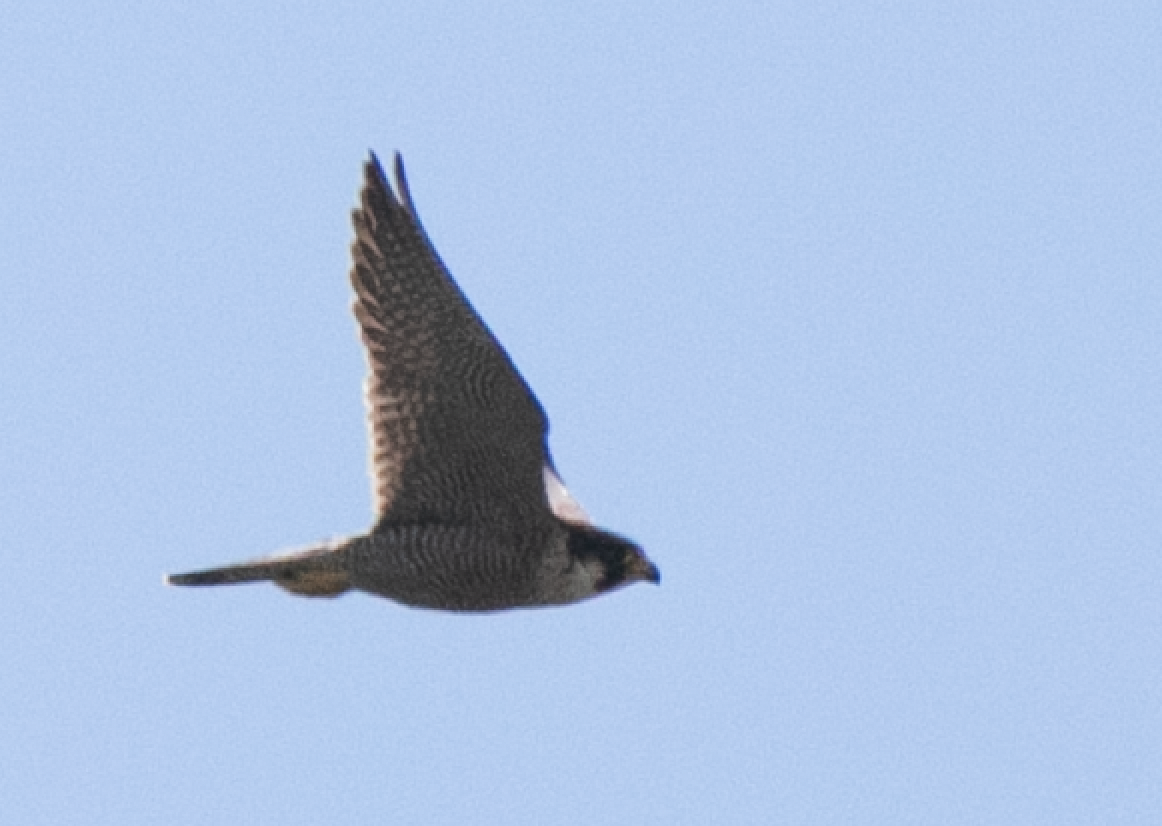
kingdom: Animalia
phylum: Chordata
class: Aves
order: Falconiformes
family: Falconidae
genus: Falco
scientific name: Falco peregrinus
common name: Peregrine falcon
